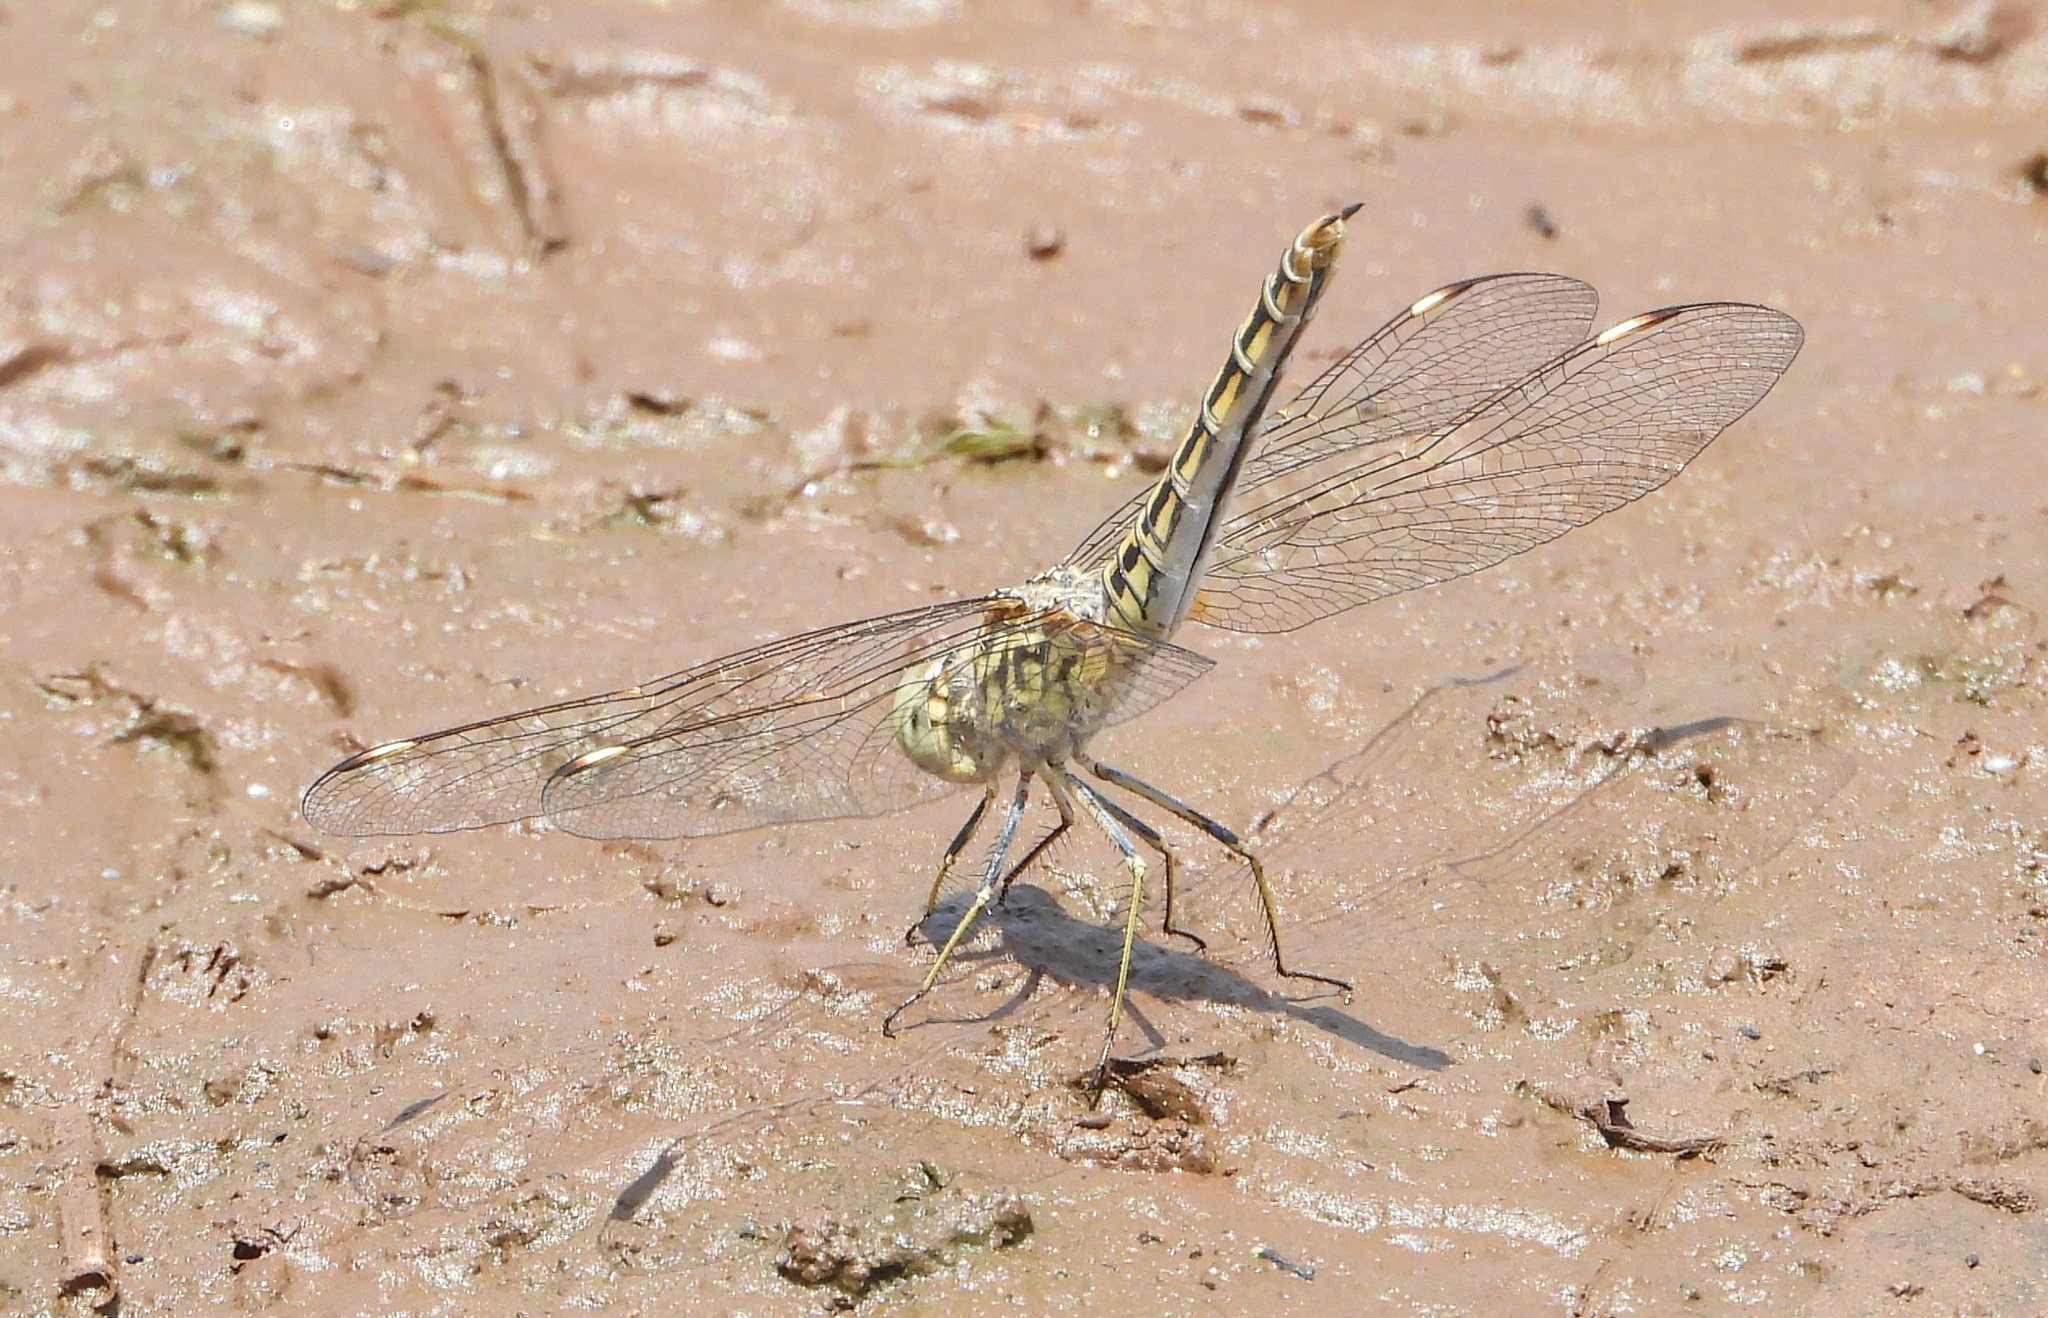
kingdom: Animalia
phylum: Arthropoda
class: Insecta
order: Odonata
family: Libellulidae
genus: Brachythemis
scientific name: Brachythemis leucosticta
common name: Banded groundling
